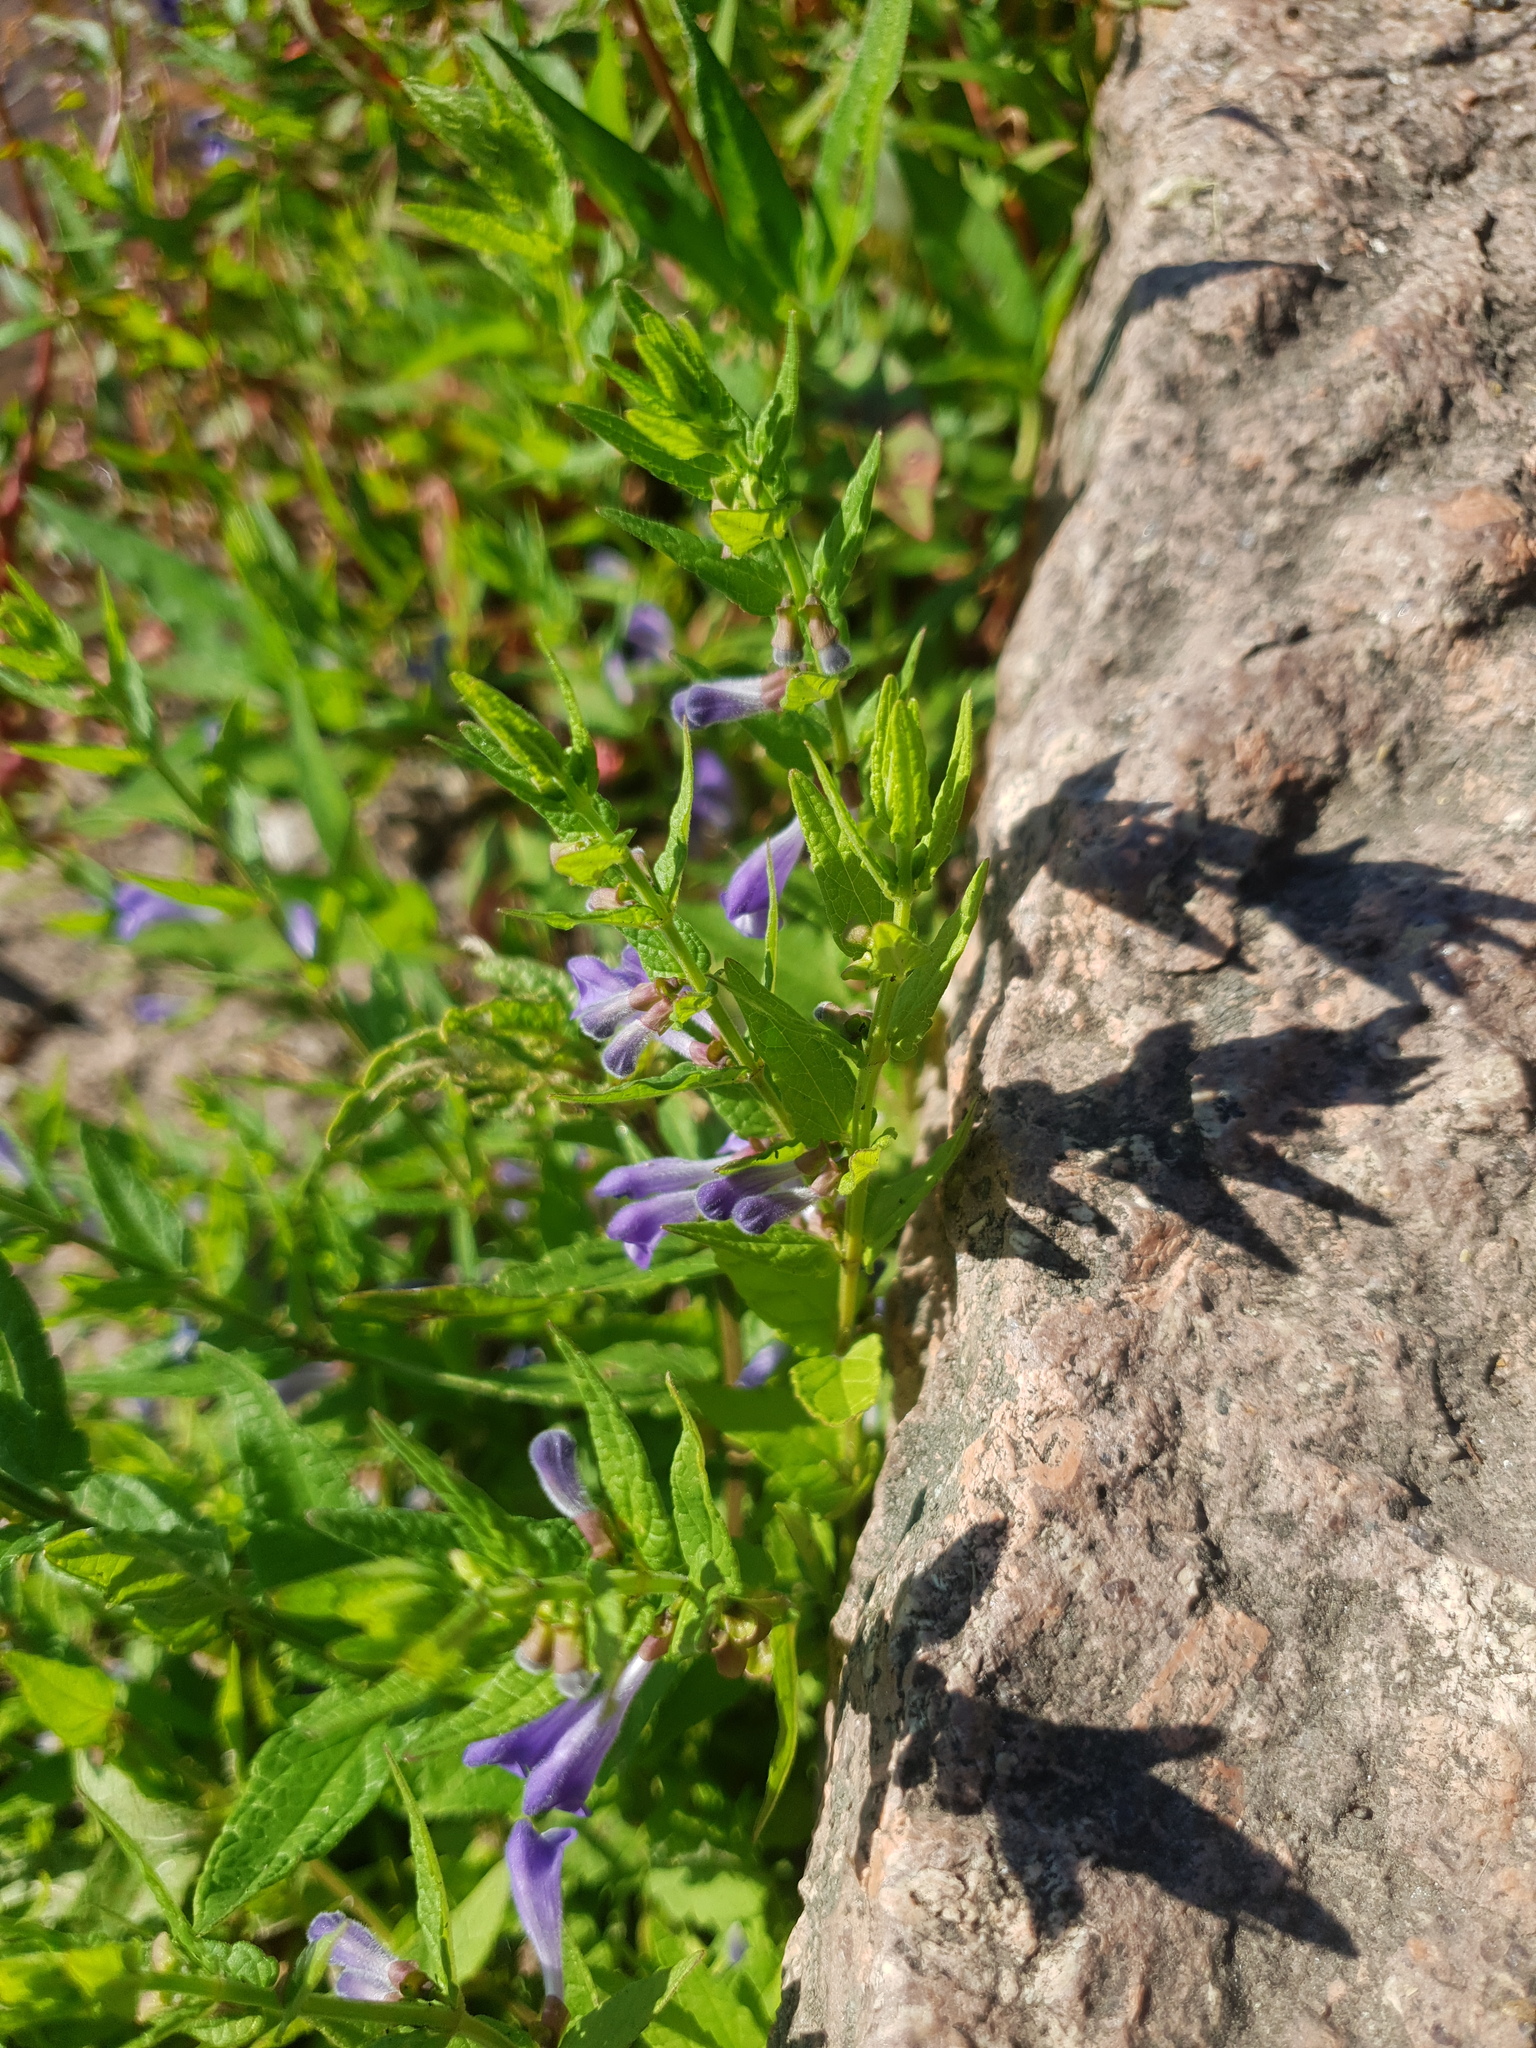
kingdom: Plantae
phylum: Tracheophyta
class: Magnoliopsida
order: Lamiales
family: Lamiaceae
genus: Scutellaria
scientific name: Scutellaria galericulata
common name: Skullcap
